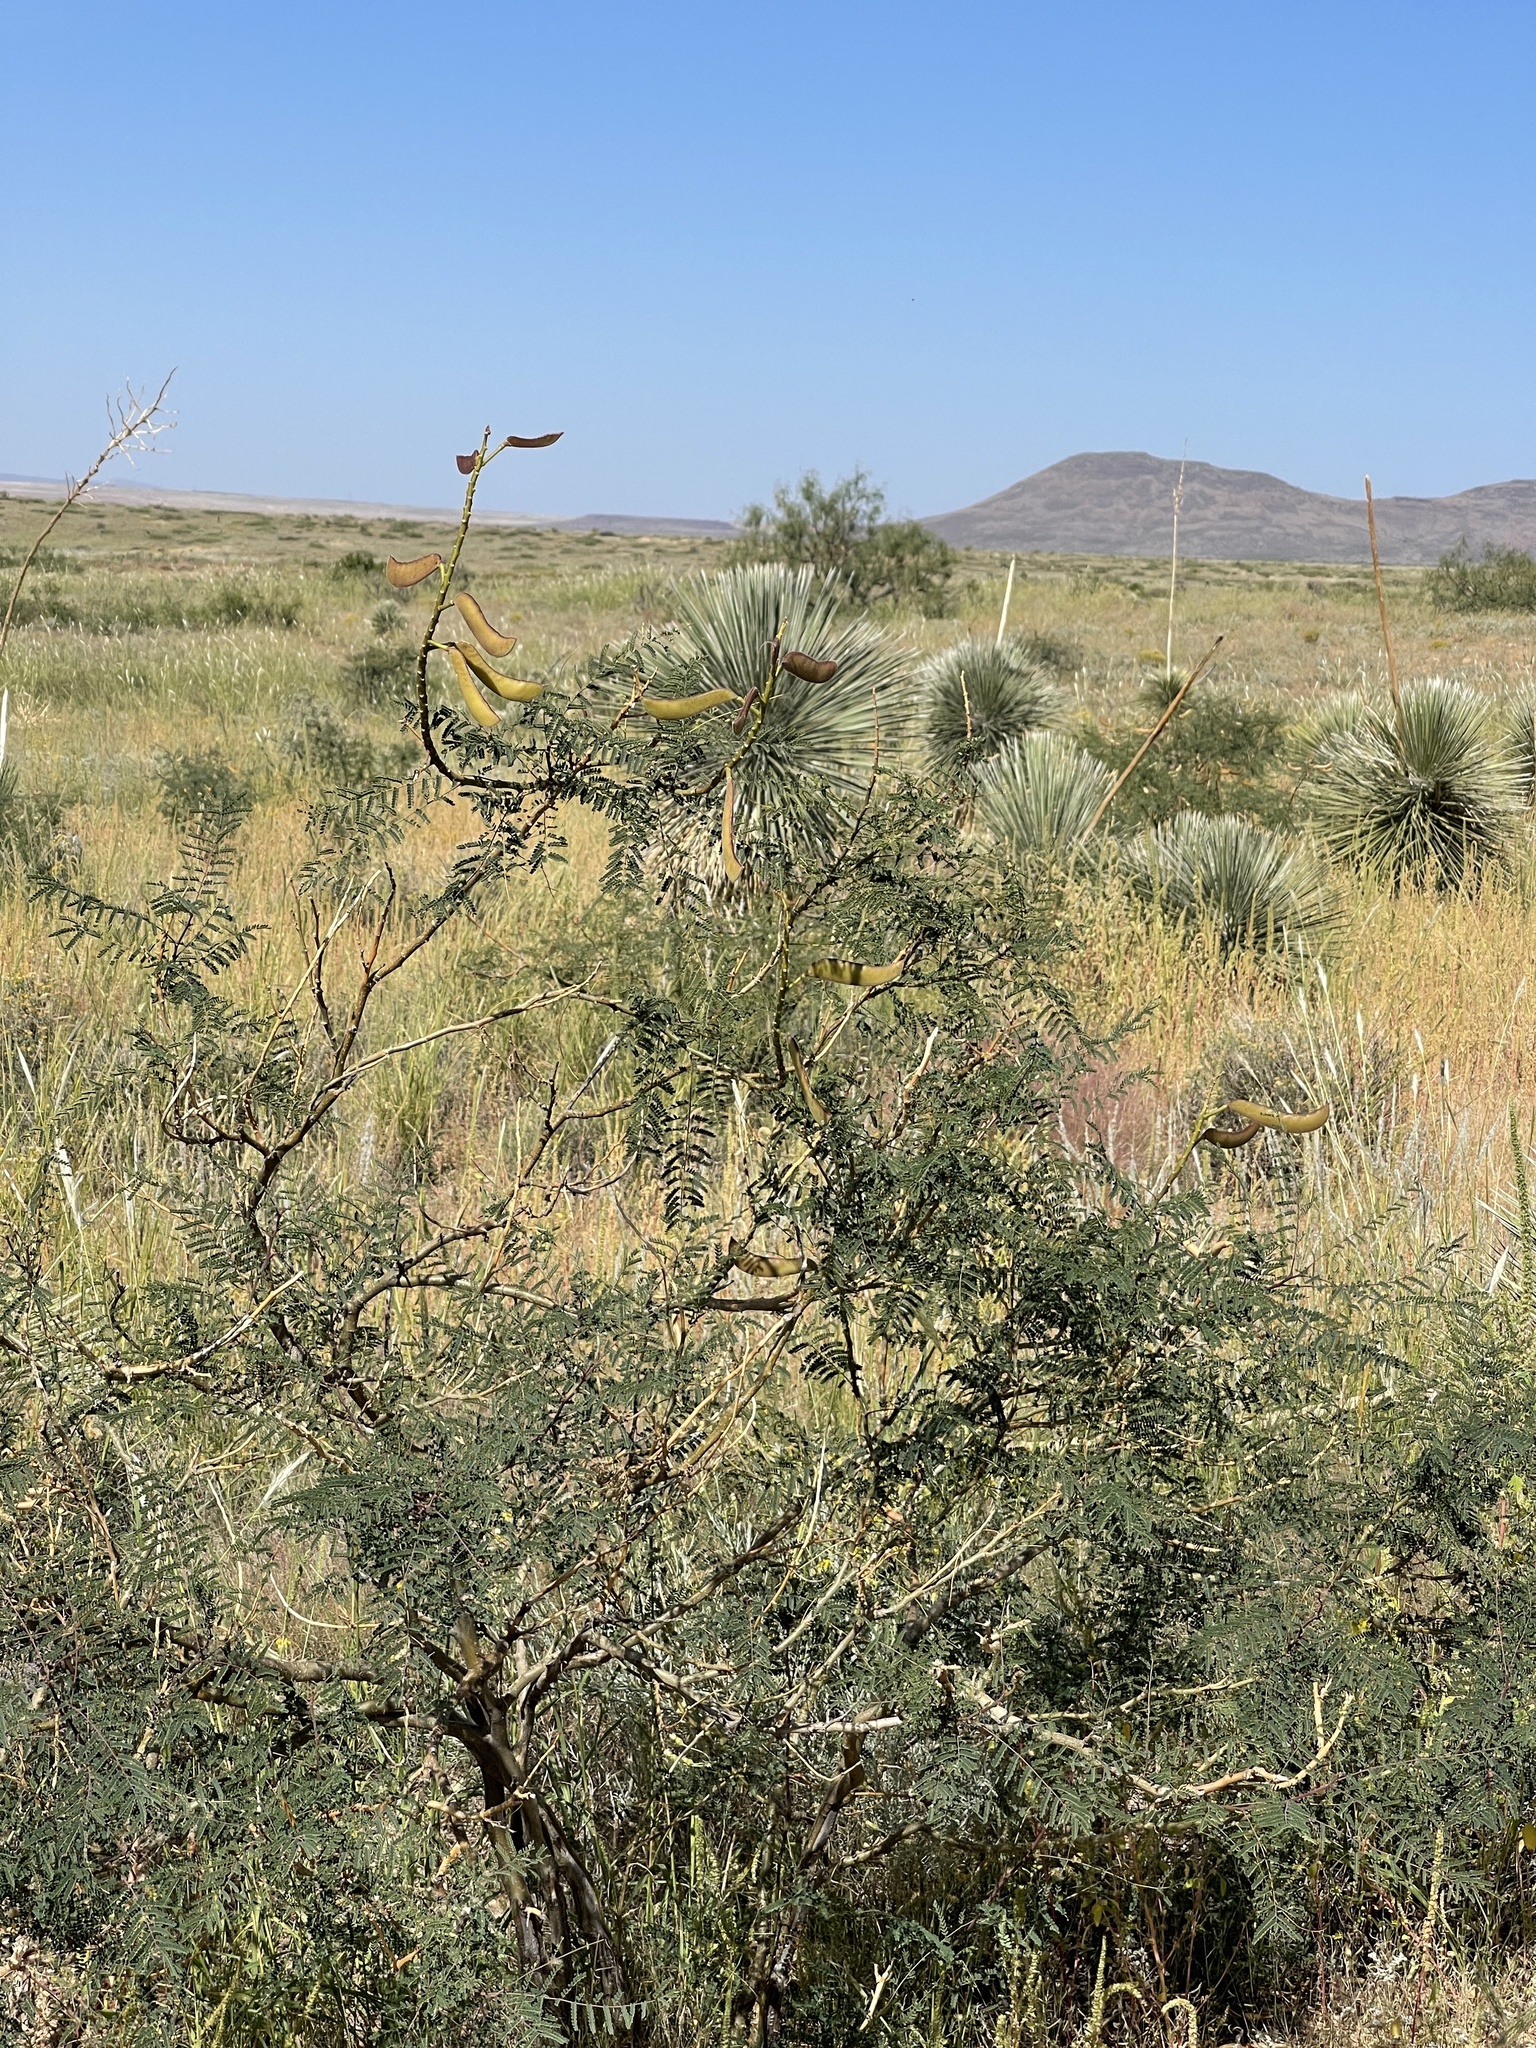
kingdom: Plantae
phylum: Tracheophyta
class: Magnoliopsida
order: Fabales
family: Fabaceae
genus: Erythrostemon
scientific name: Erythrostemon gilliesii
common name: Bird-of-paradise shrub
